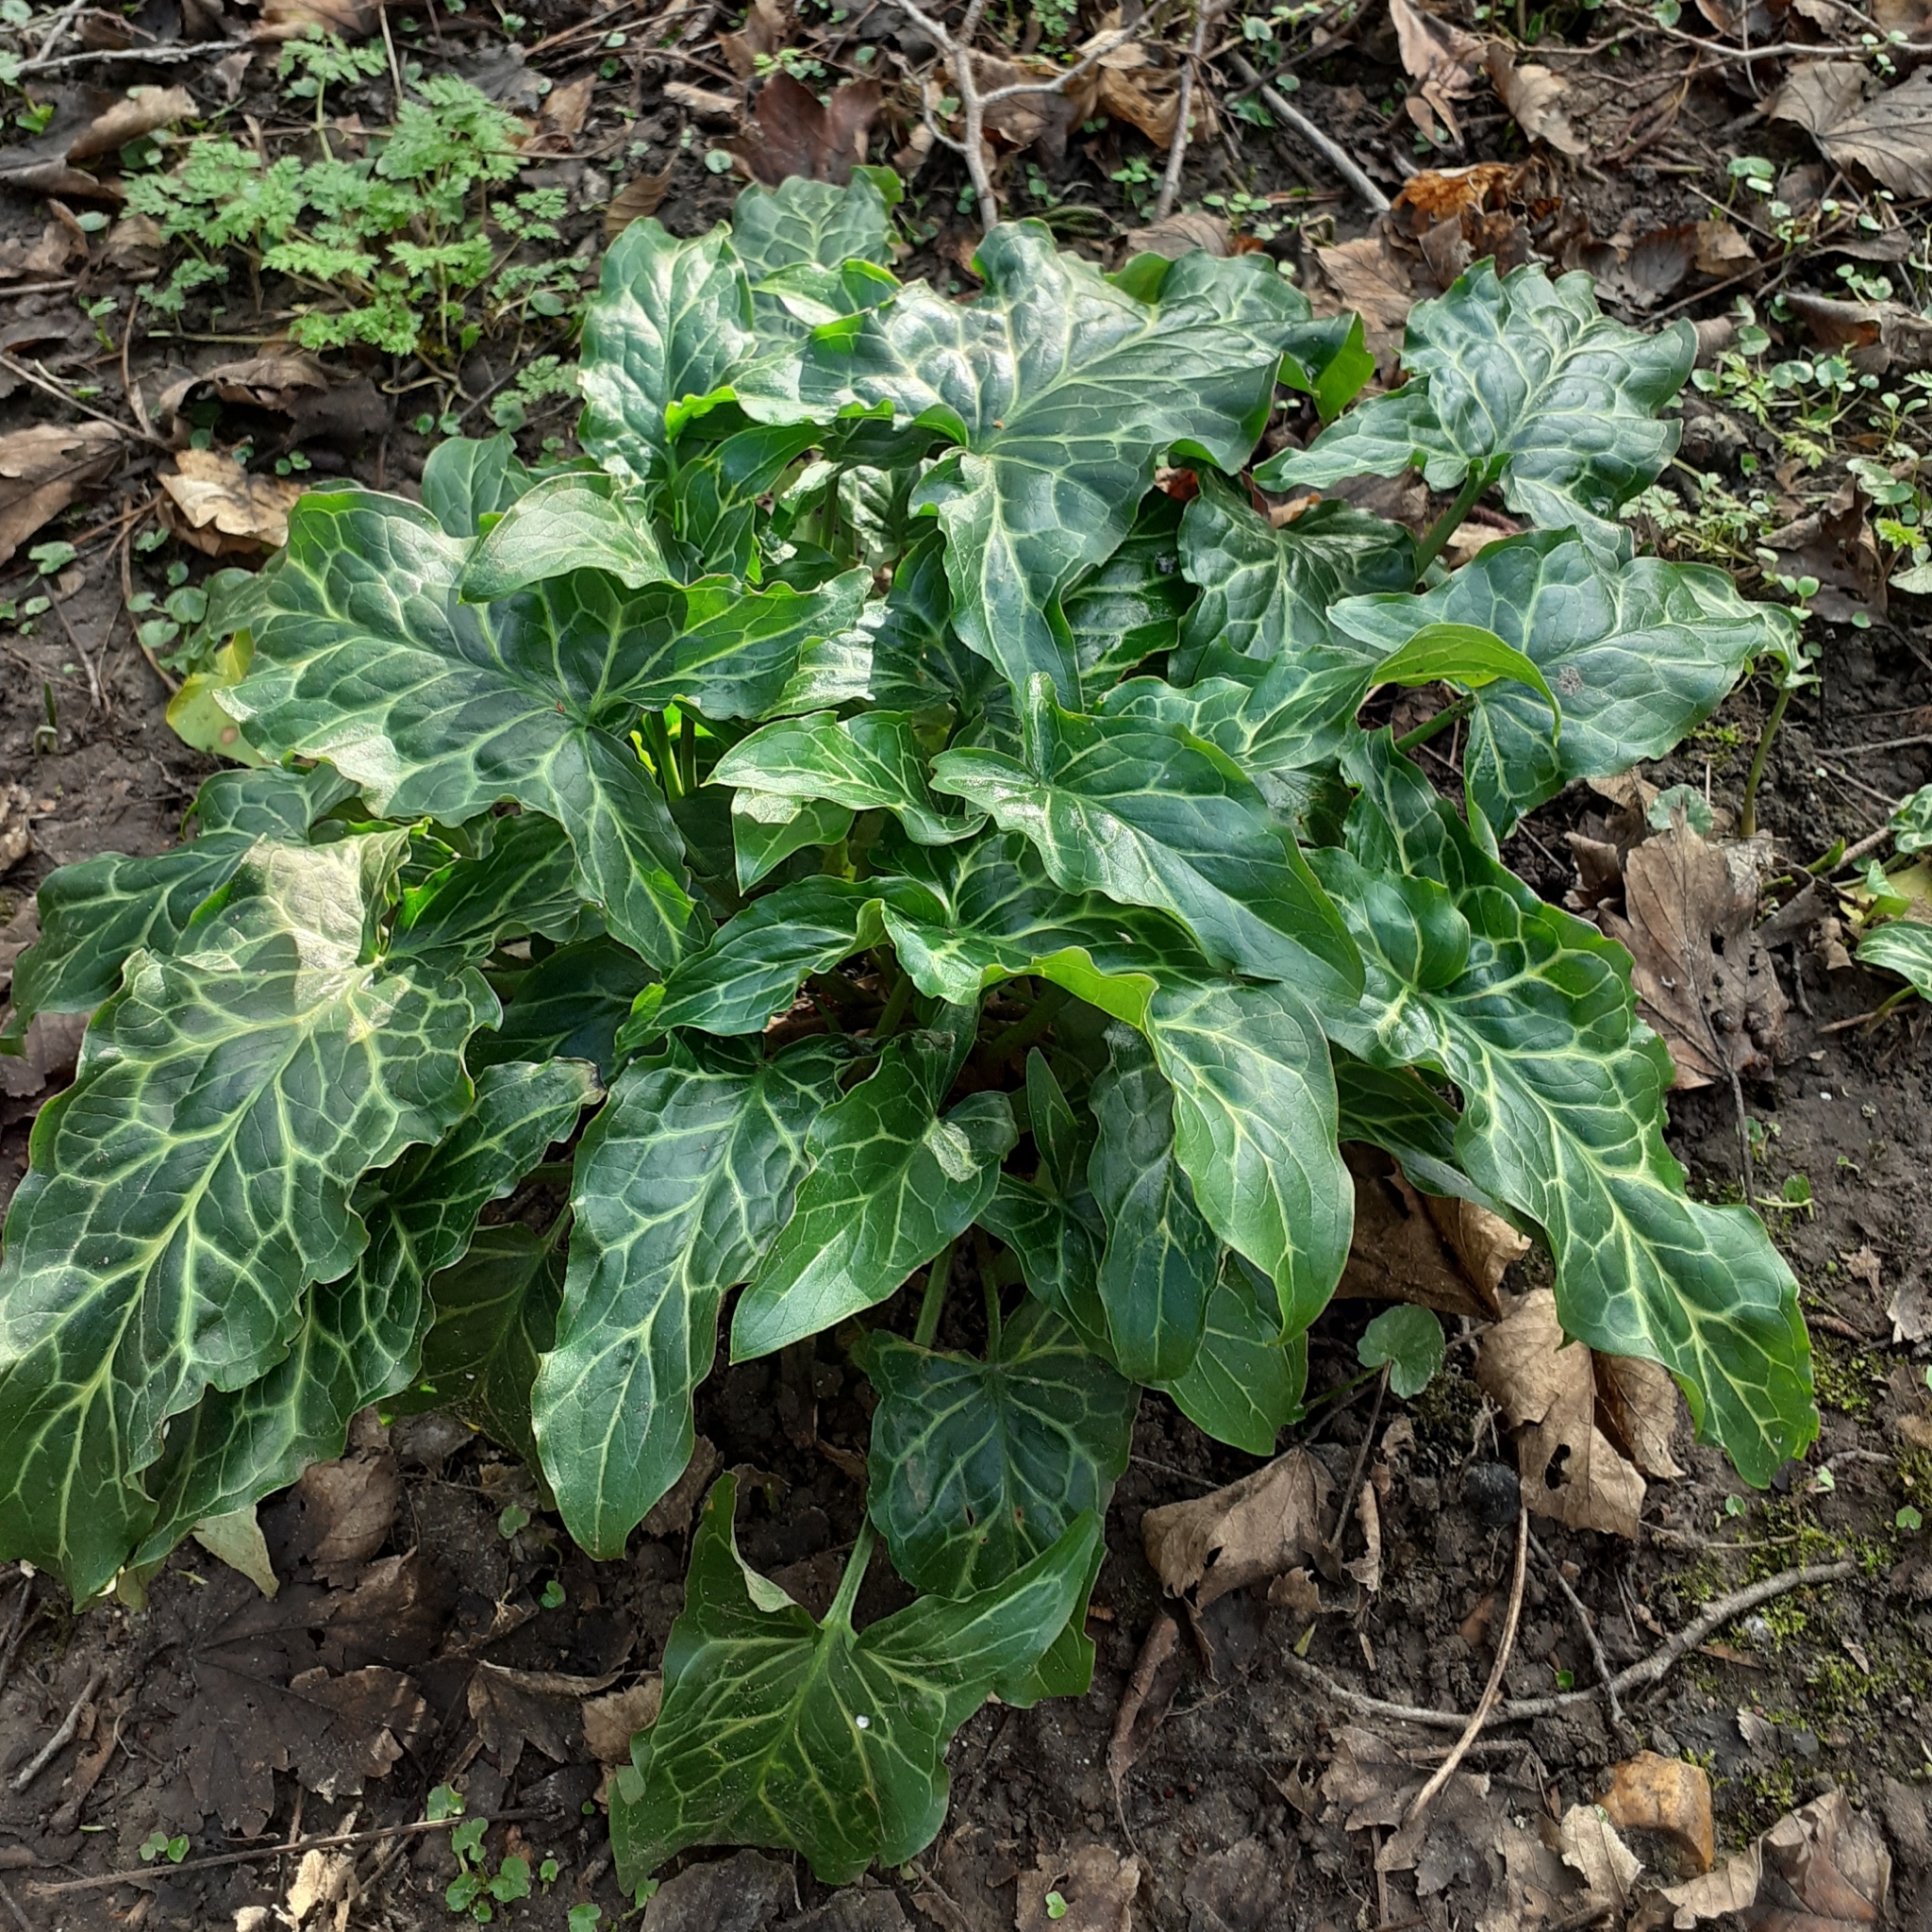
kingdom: Plantae
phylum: Tracheophyta
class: Liliopsida
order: Alismatales
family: Araceae
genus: Arum
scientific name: Arum italicum
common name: Italian lords-and-ladies
